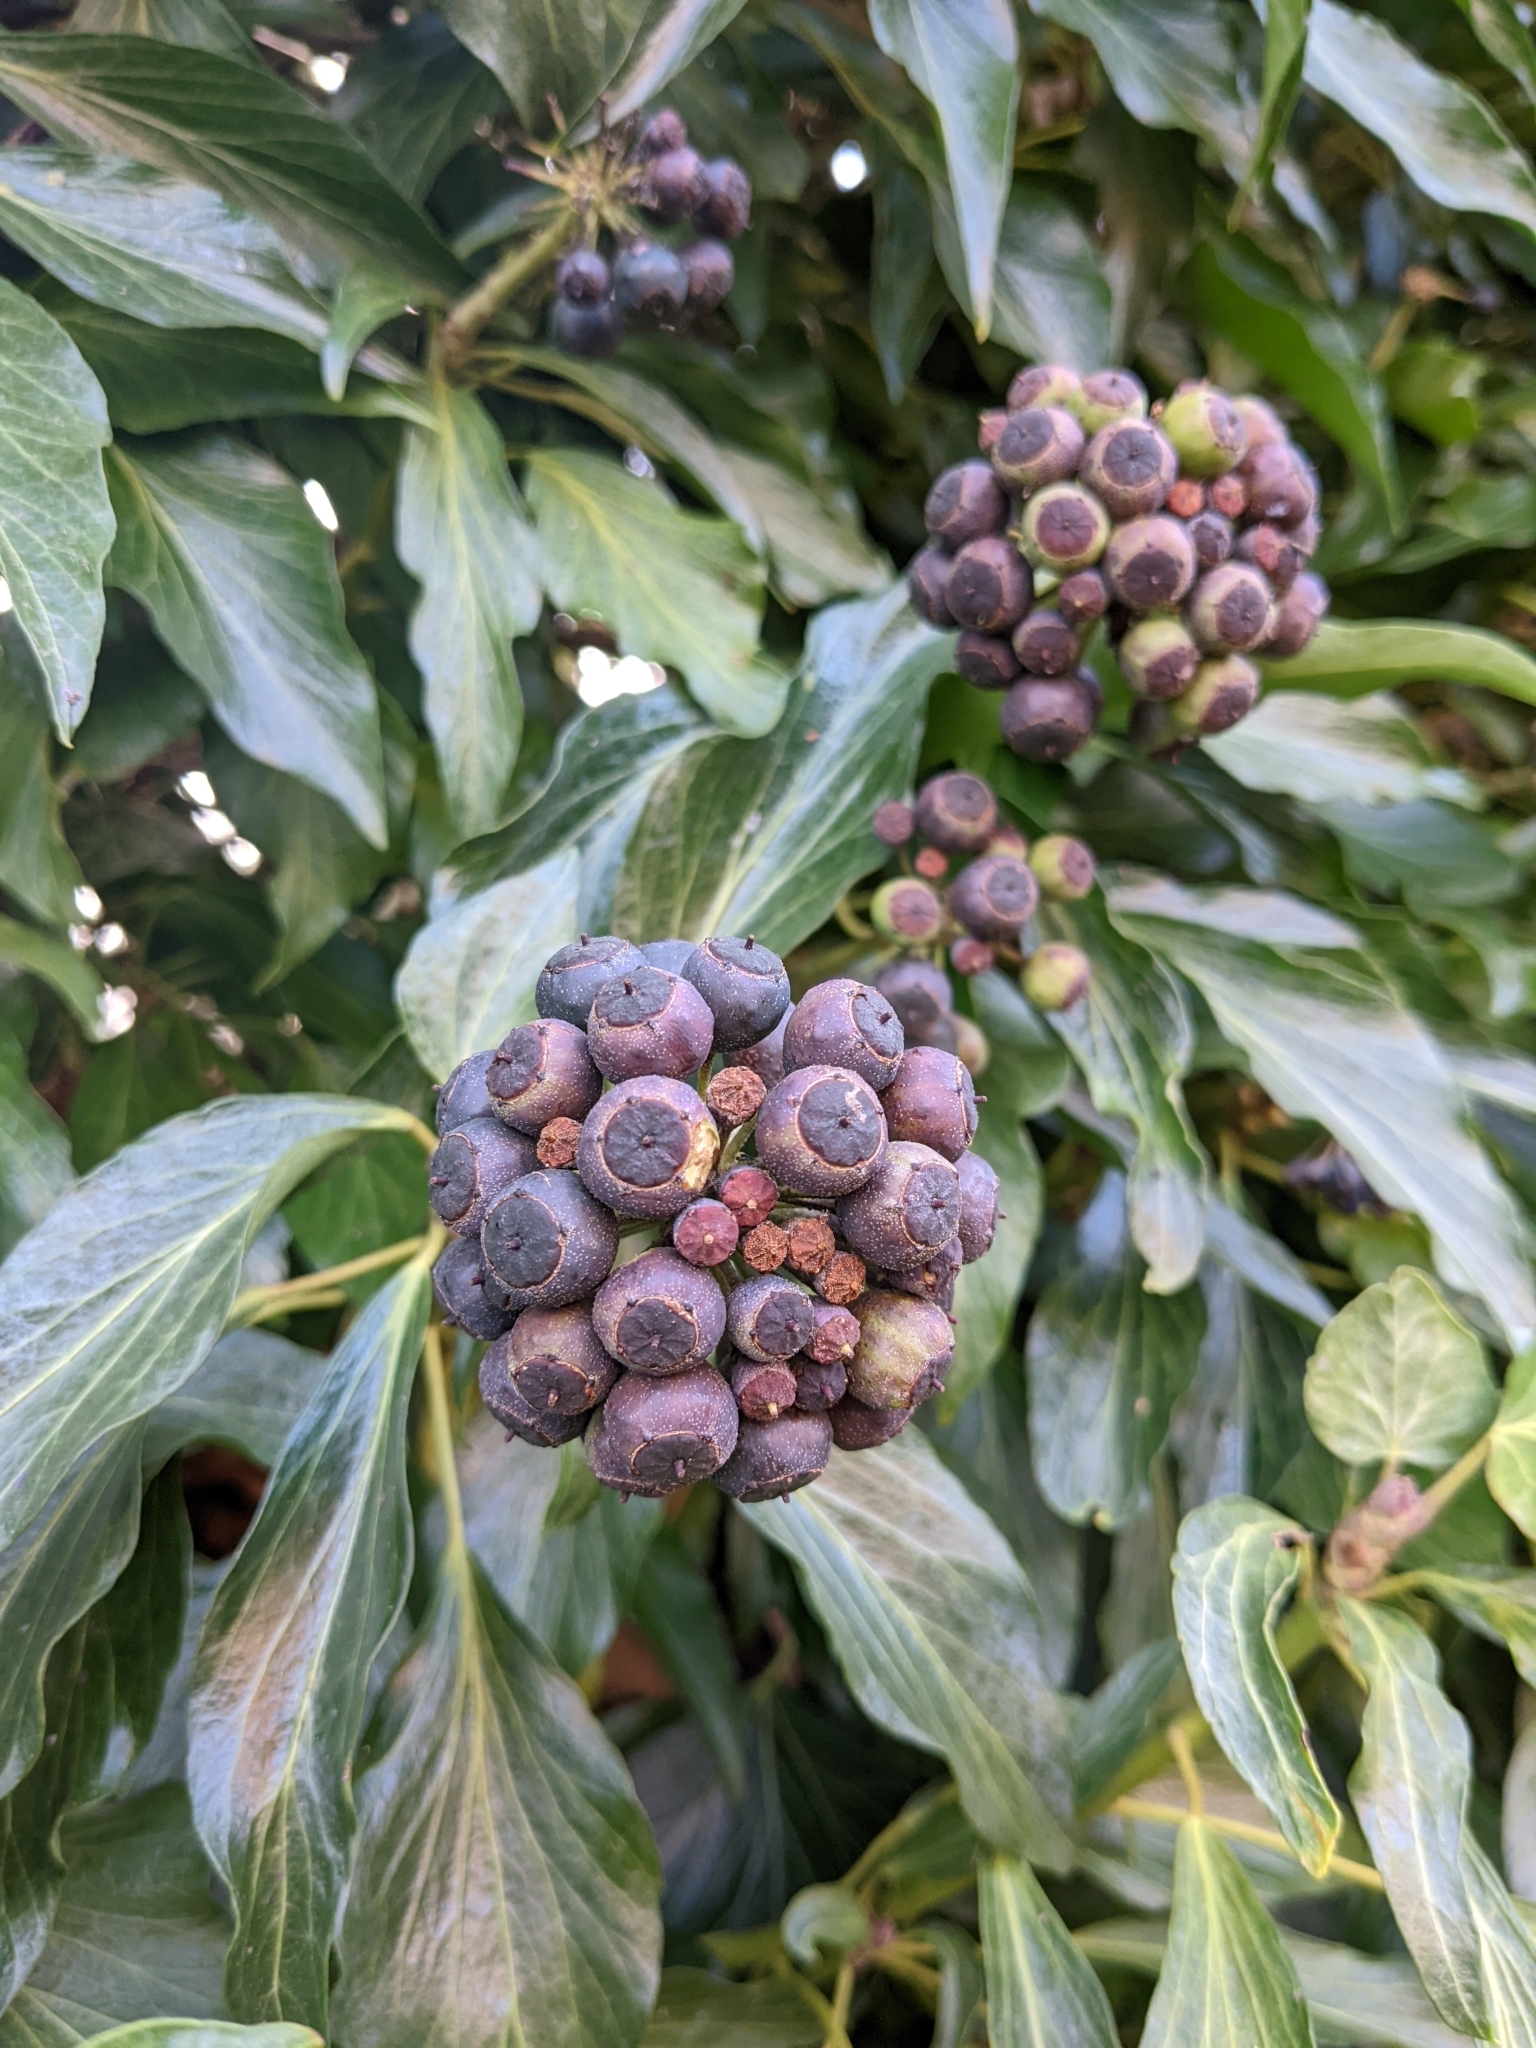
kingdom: Plantae
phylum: Tracheophyta
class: Magnoliopsida
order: Apiales
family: Araliaceae
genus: Hedera
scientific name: Hedera helix
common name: Ivy
